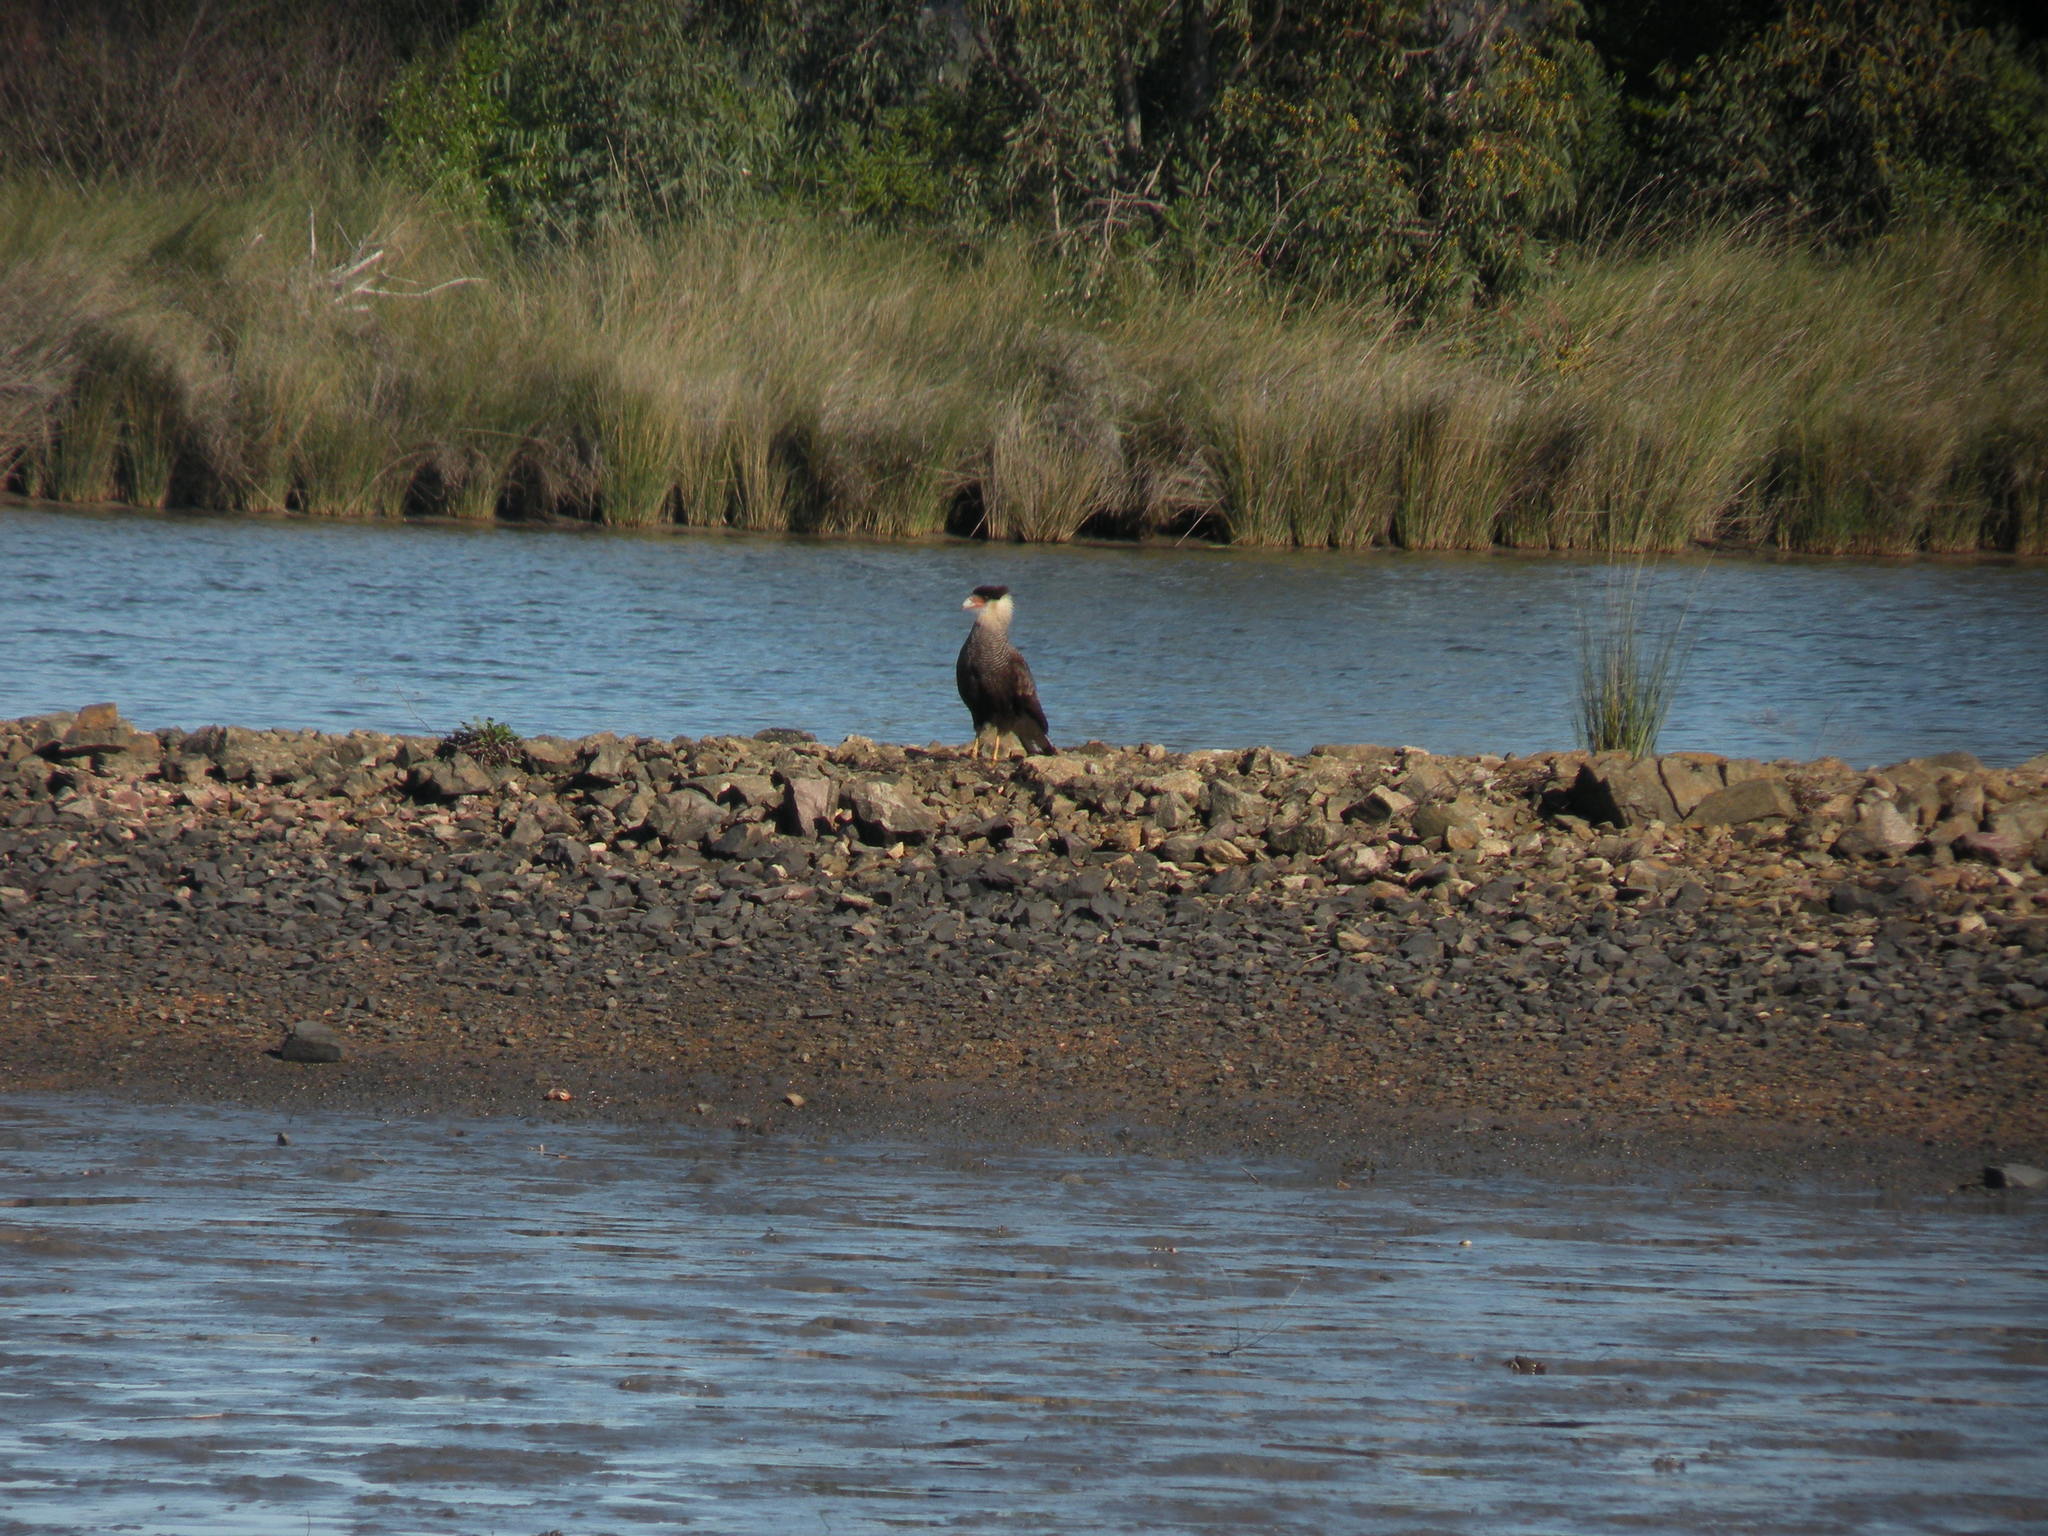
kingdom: Animalia
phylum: Chordata
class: Aves
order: Falconiformes
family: Falconidae
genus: Caracara
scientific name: Caracara plancus
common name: Southern caracara
